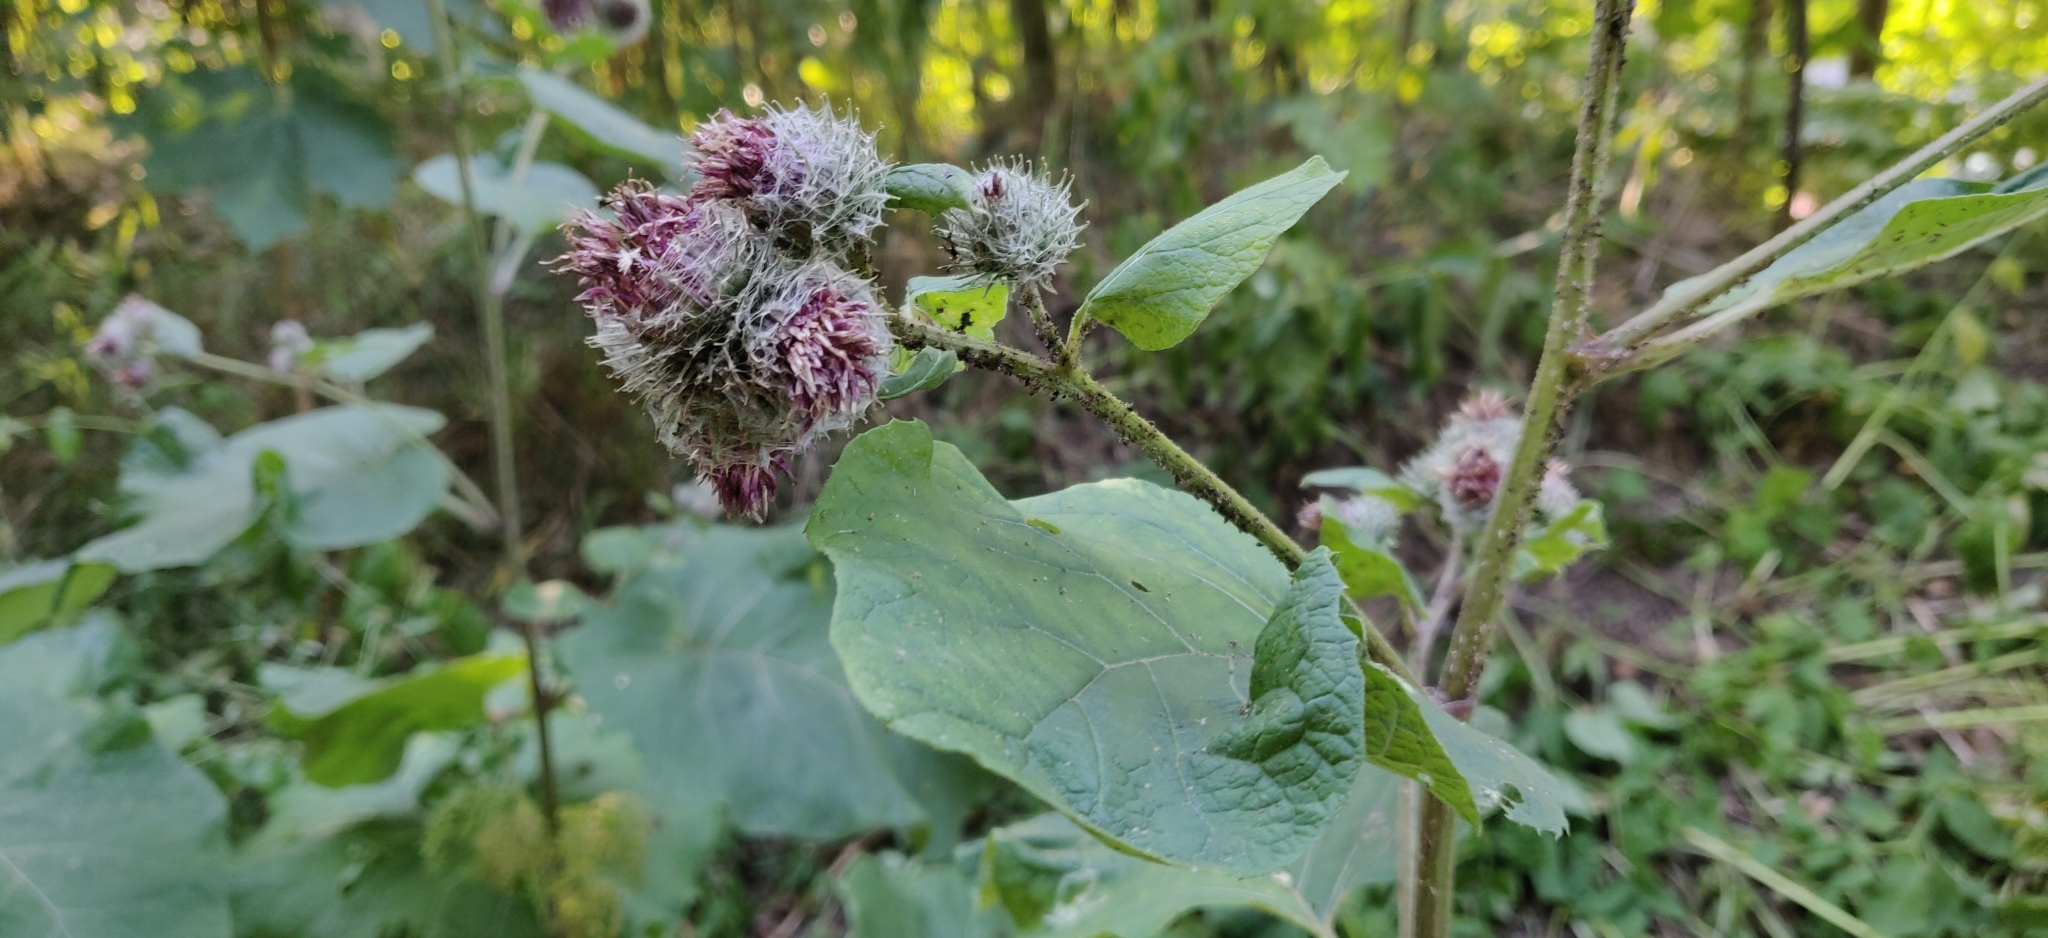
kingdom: Plantae
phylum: Tracheophyta
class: Magnoliopsida
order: Asterales
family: Asteraceae
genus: Arctium
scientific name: Arctium tomentosum
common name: Woolly burdock
